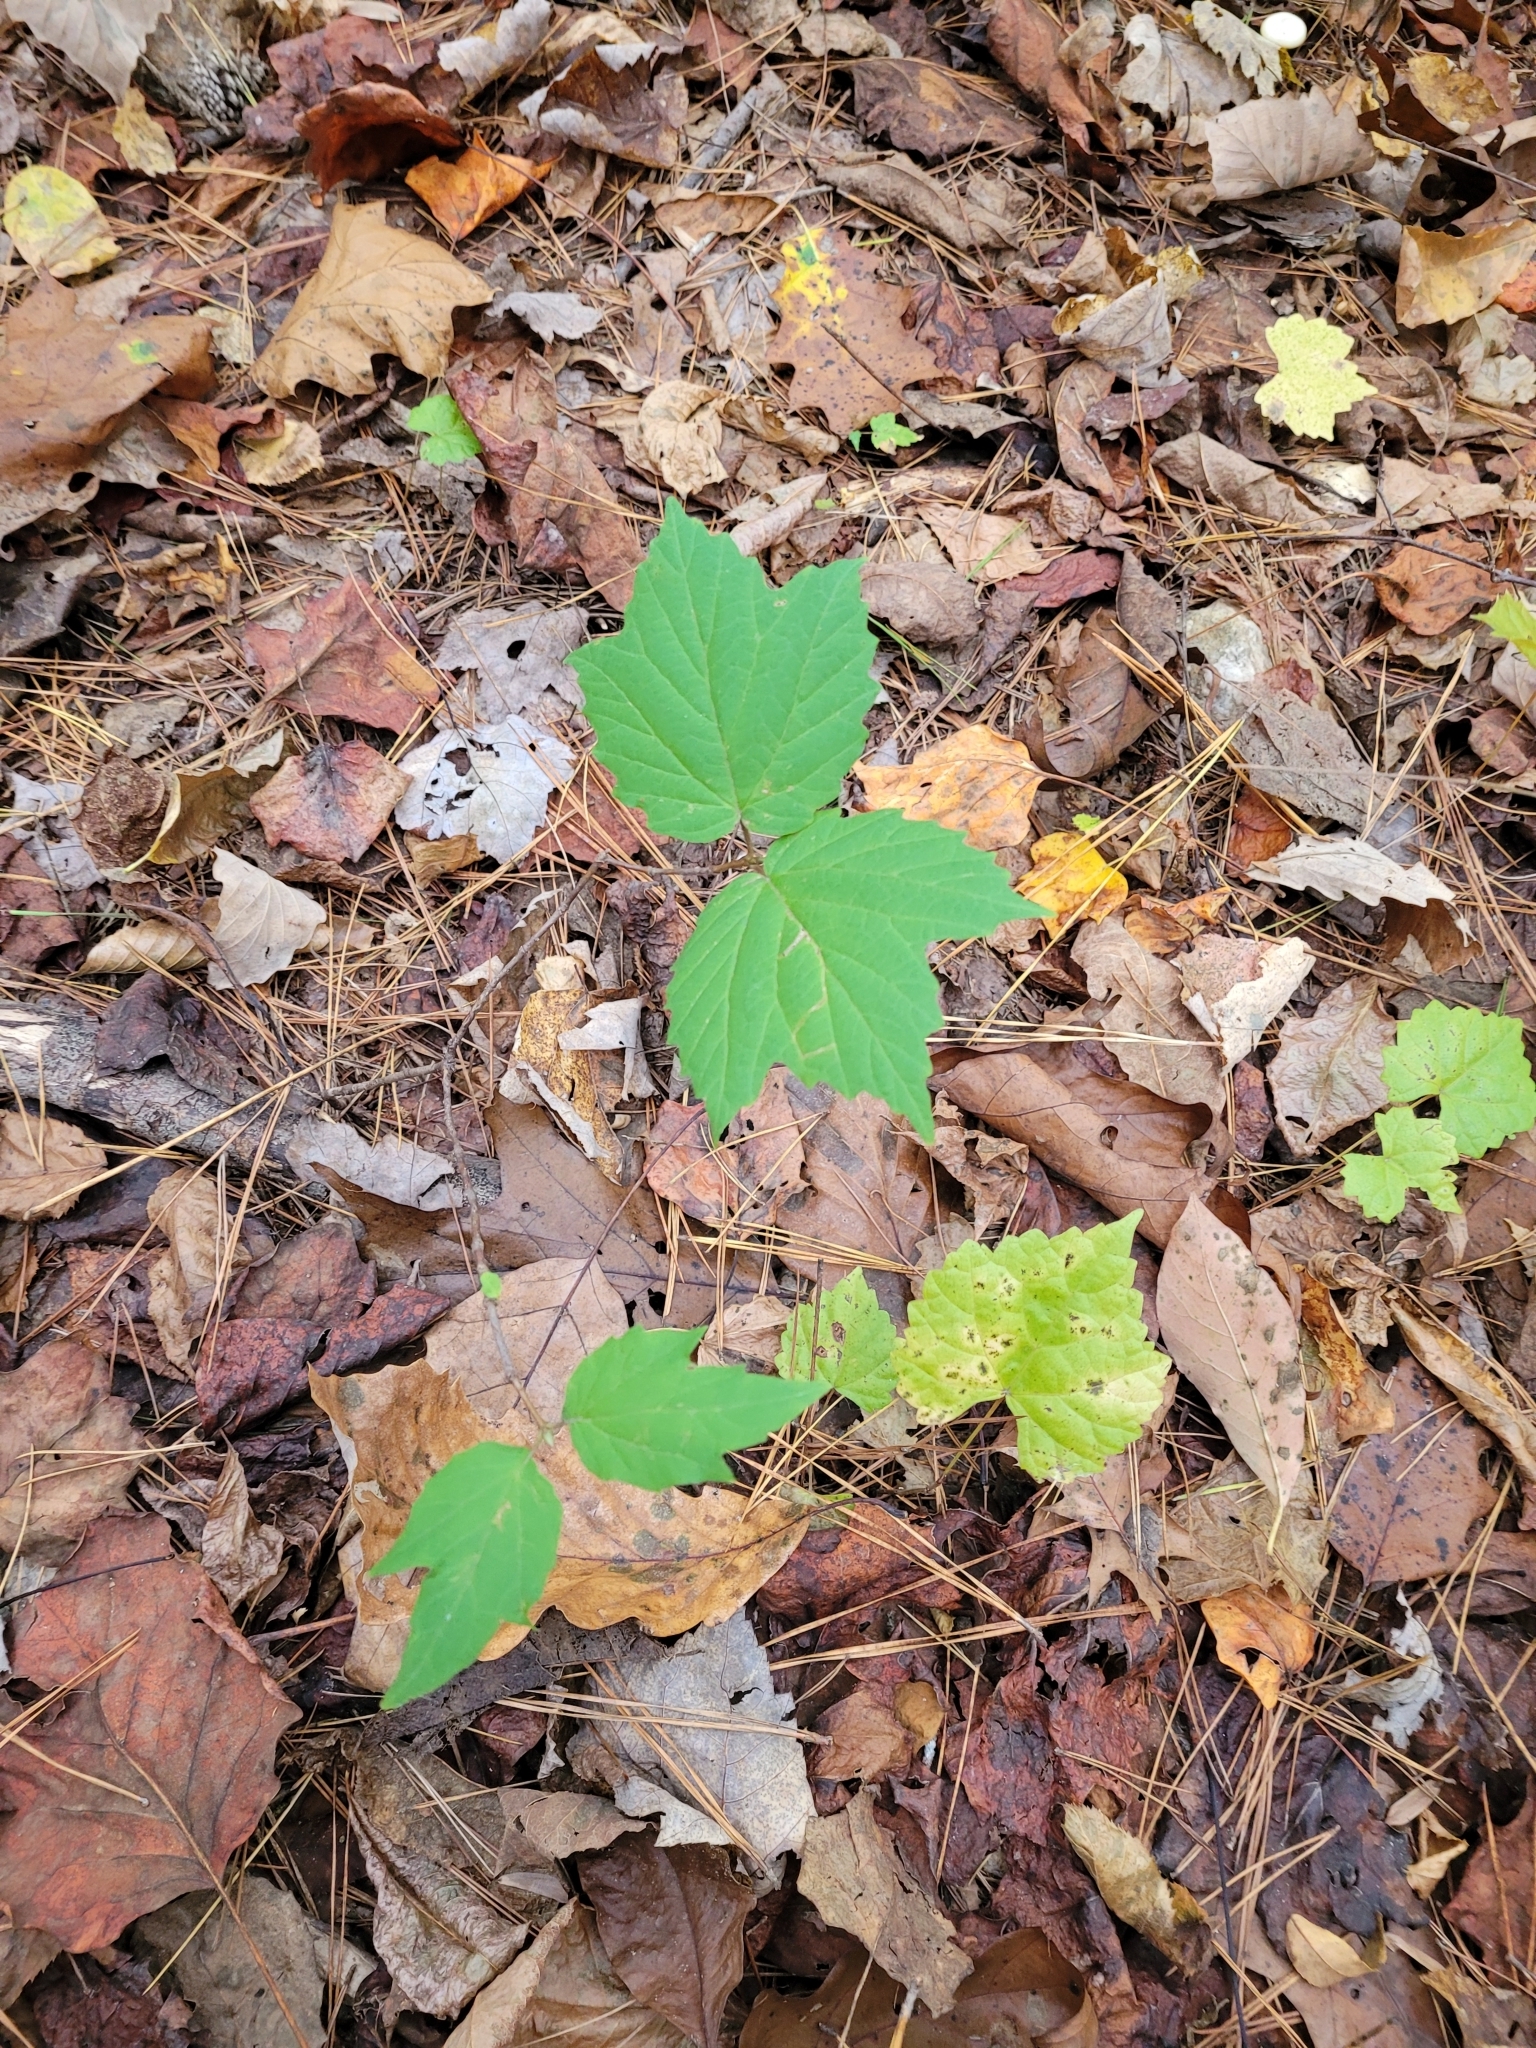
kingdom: Plantae
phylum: Tracheophyta
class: Magnoliopsida
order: Dipsacales
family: Viburnaceae
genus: Viburnum
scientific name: Viburnum acerifolium
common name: Dockmackie
